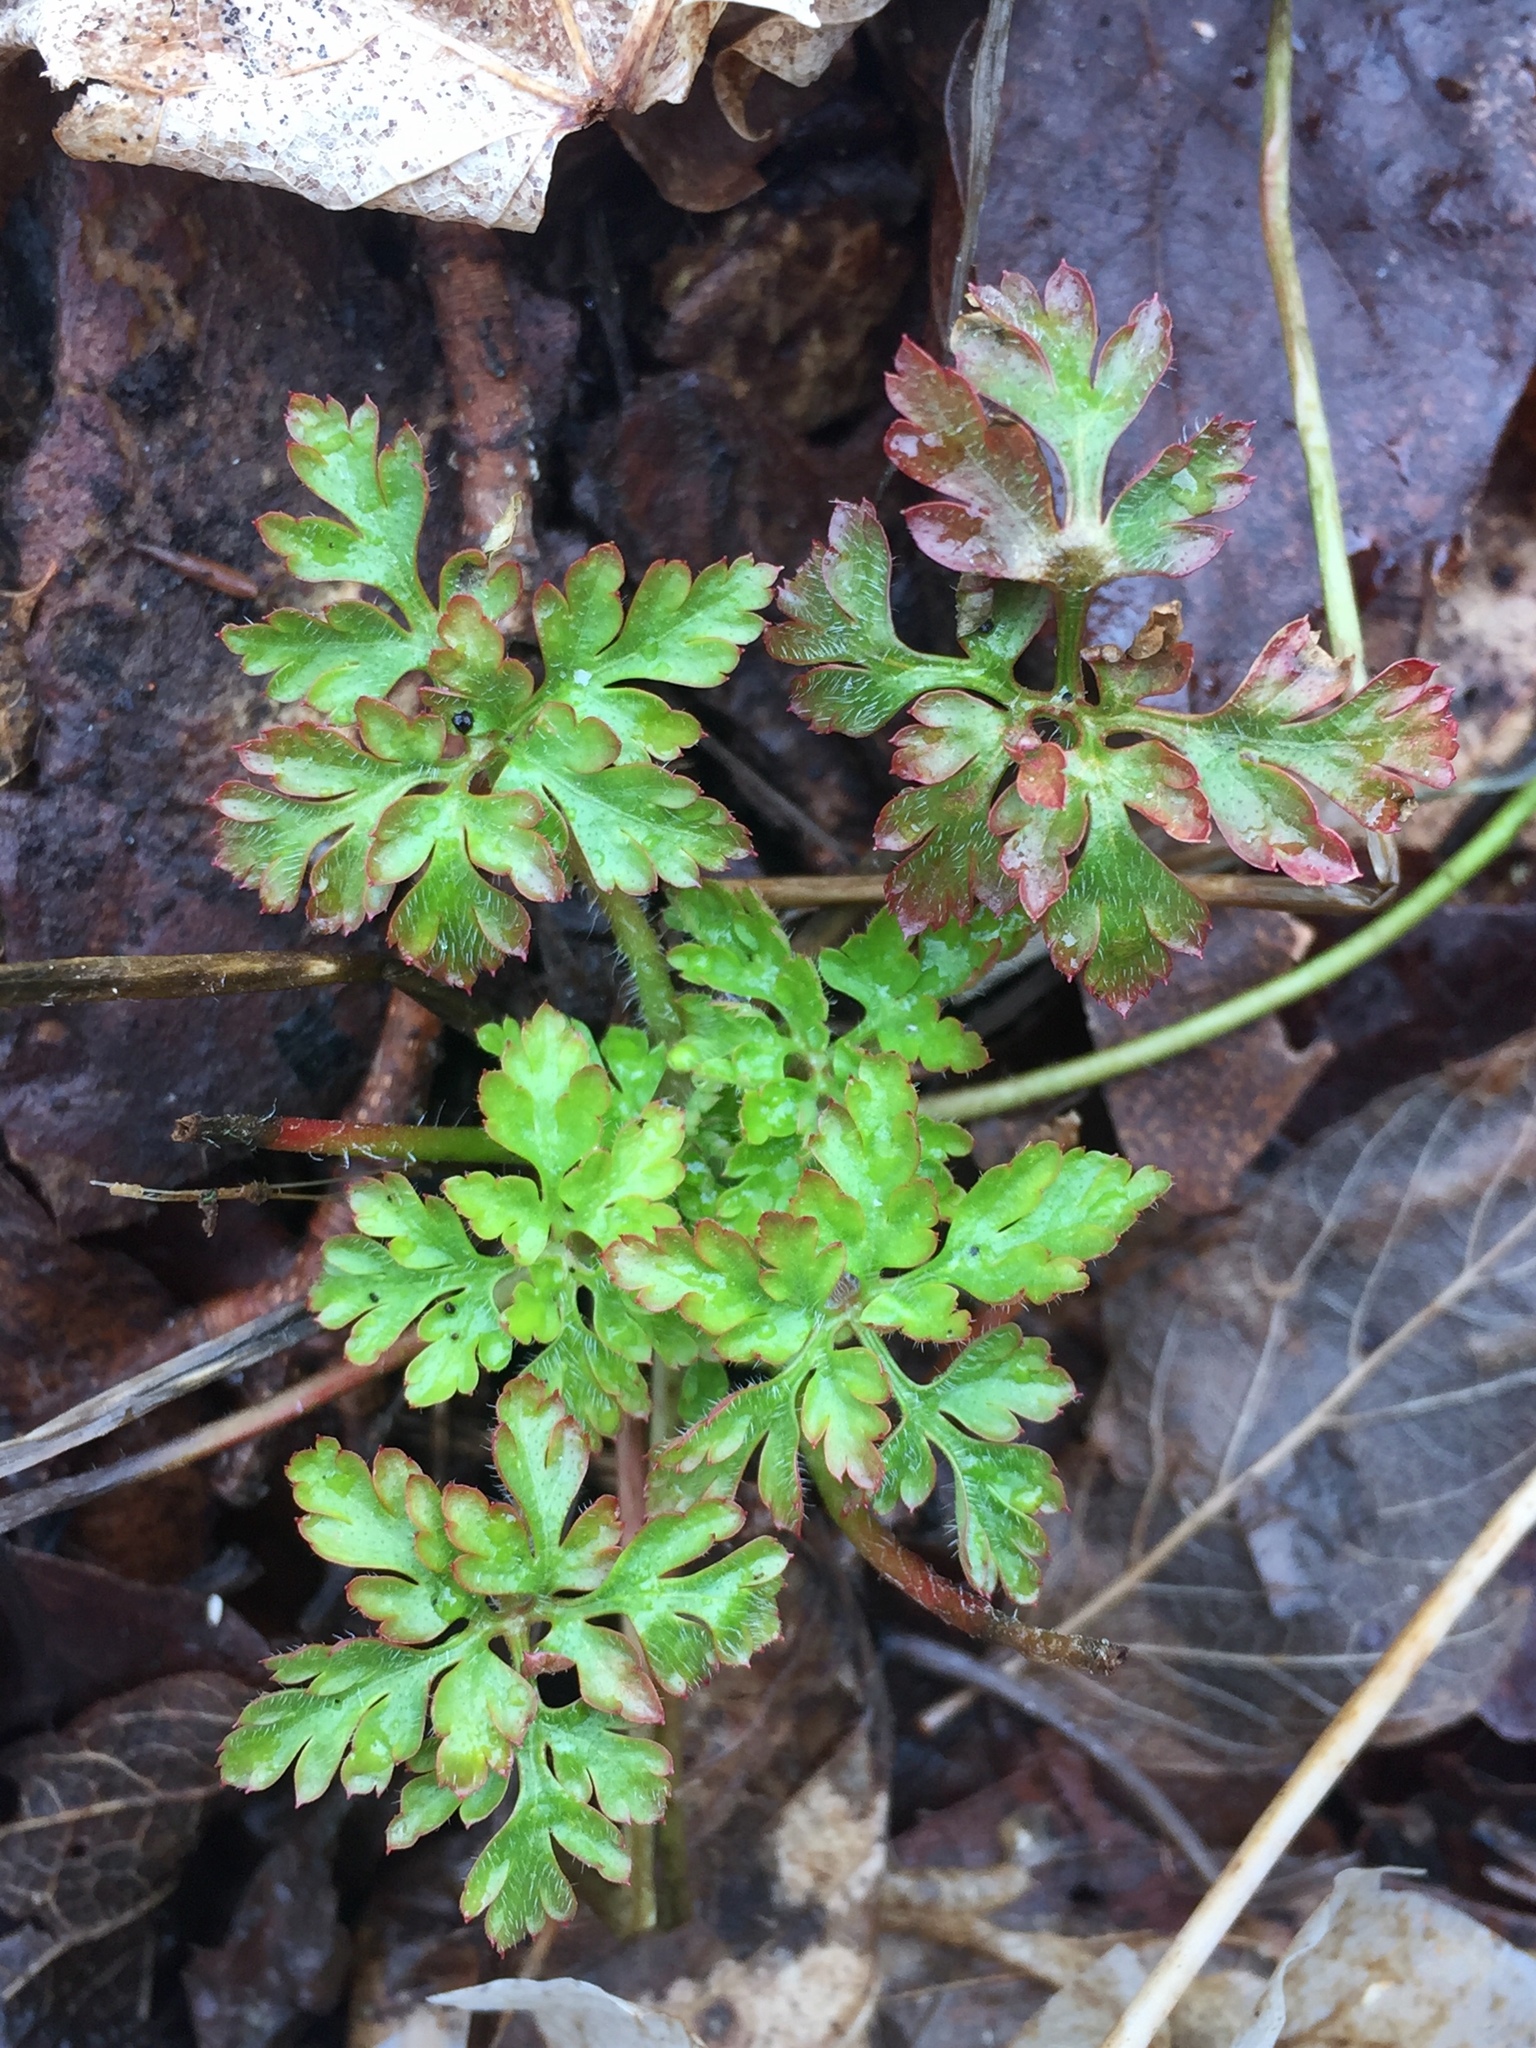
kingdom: Plantae
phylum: Tracheophyta
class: Magnoliopsida
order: Geraniales
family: Geraniaceae
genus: Geranium
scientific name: Geranium robertianum
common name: Herb-robert
